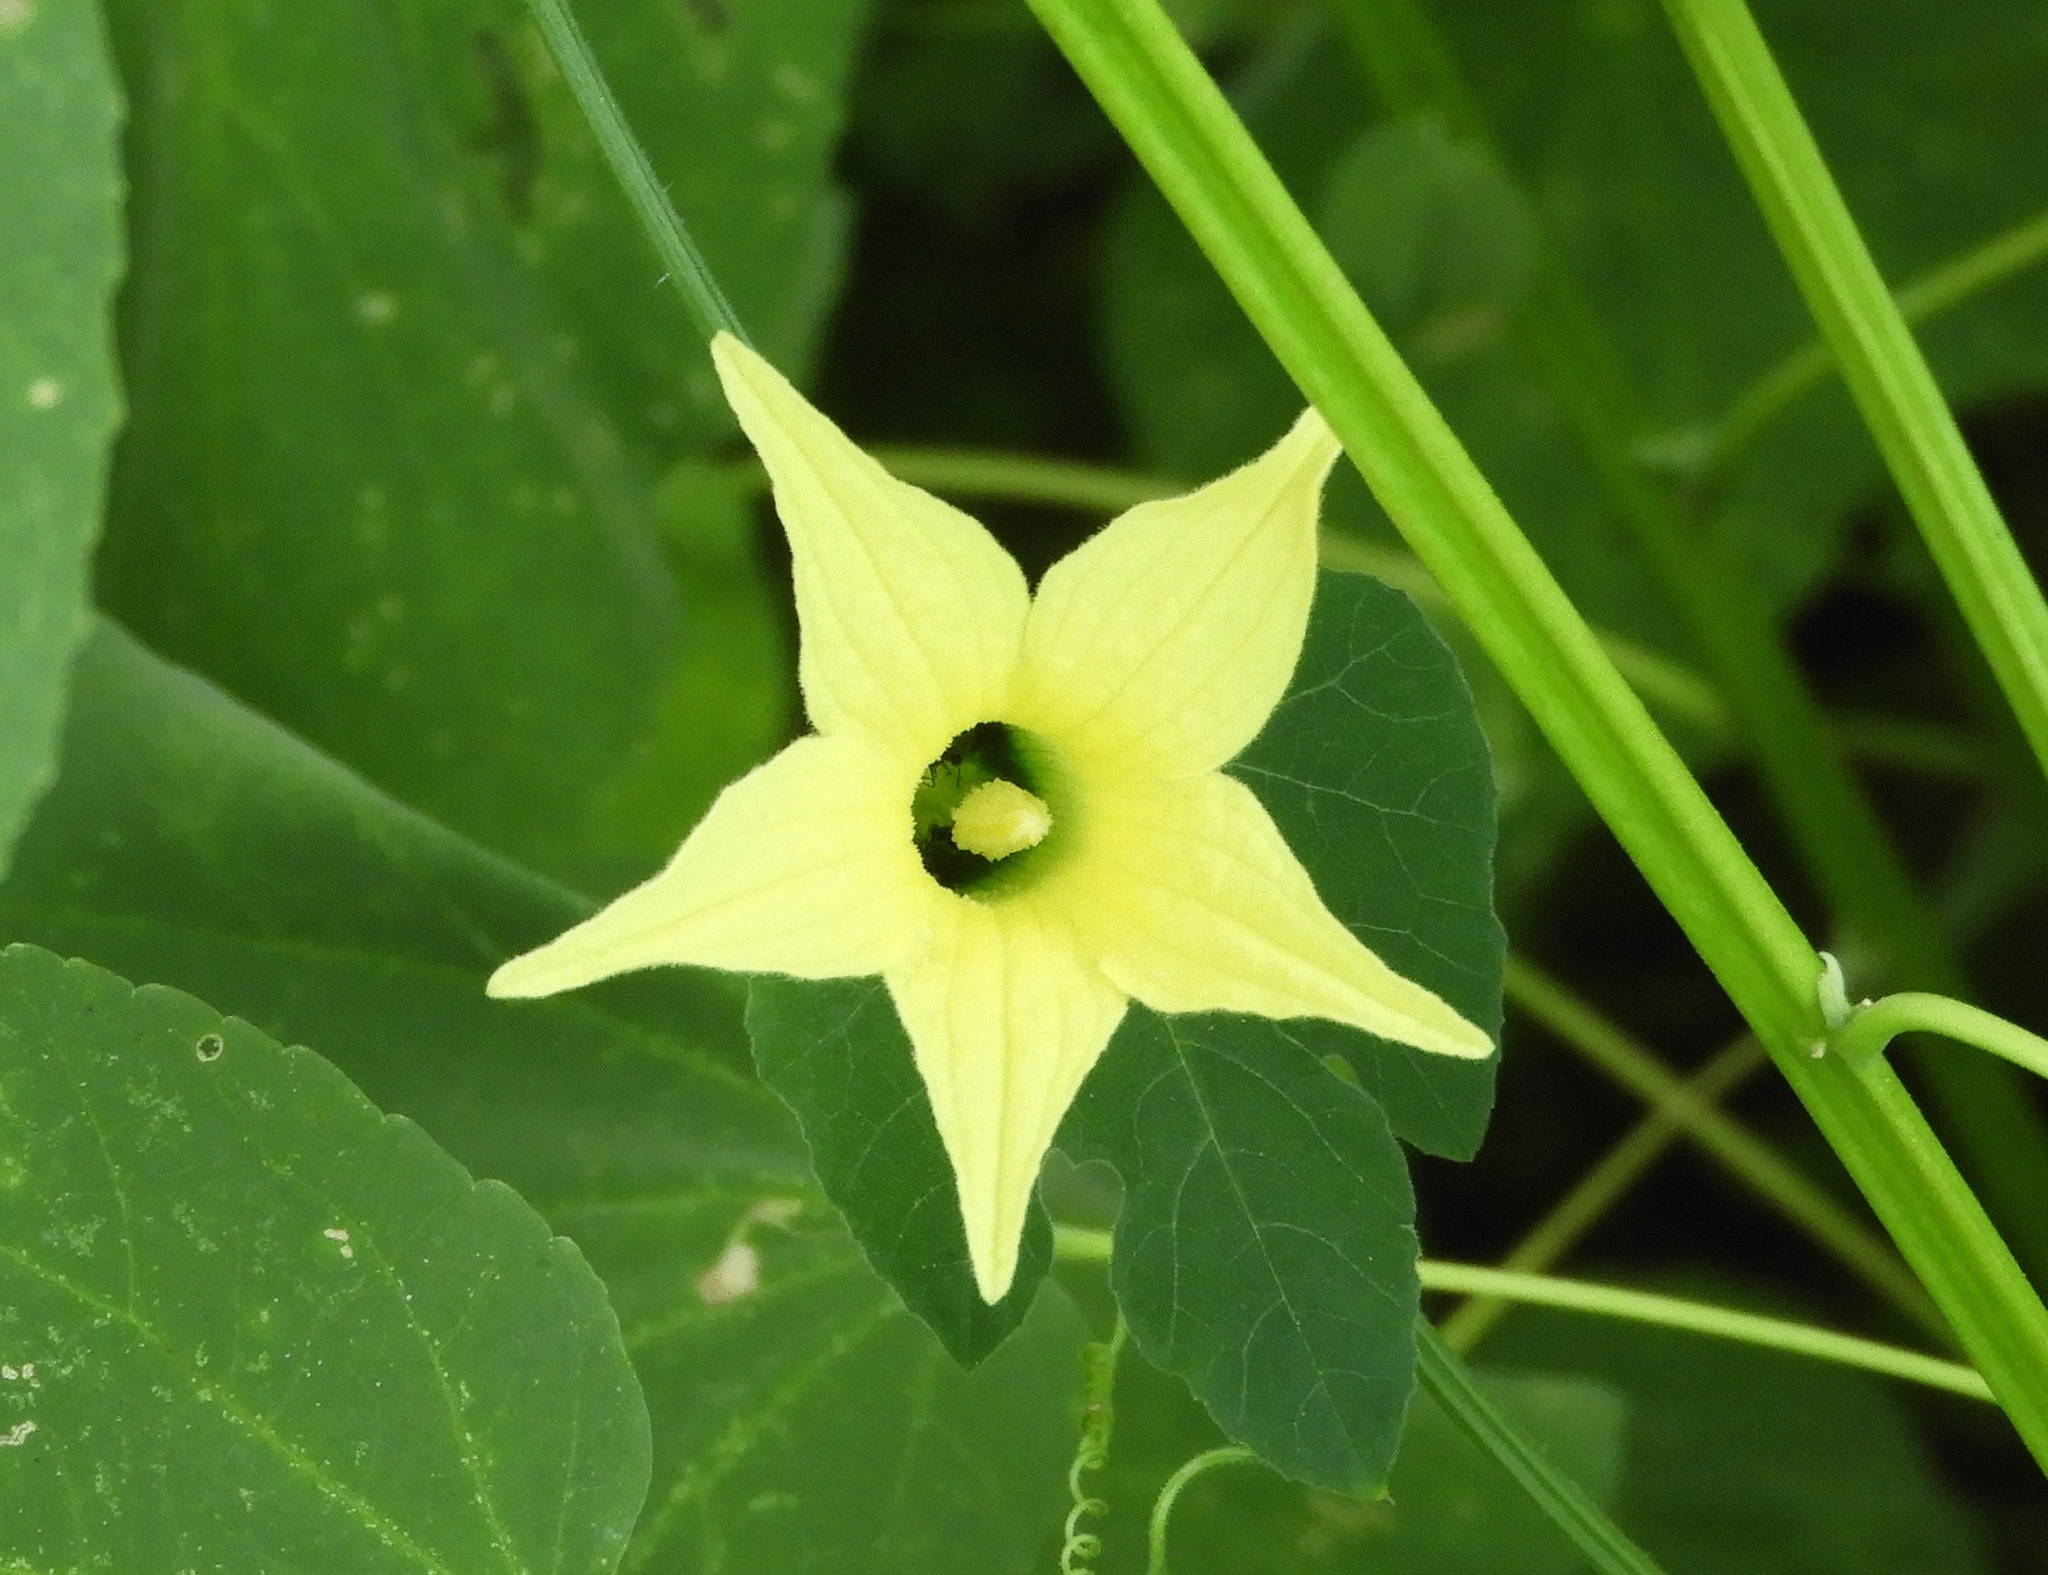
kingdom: Plantae
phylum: Tracheophyta
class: Magnoliopsida
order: Cucurbitales
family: Cucurbitaceae
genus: Schizocarpum
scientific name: Schizocarpum parviflorum
